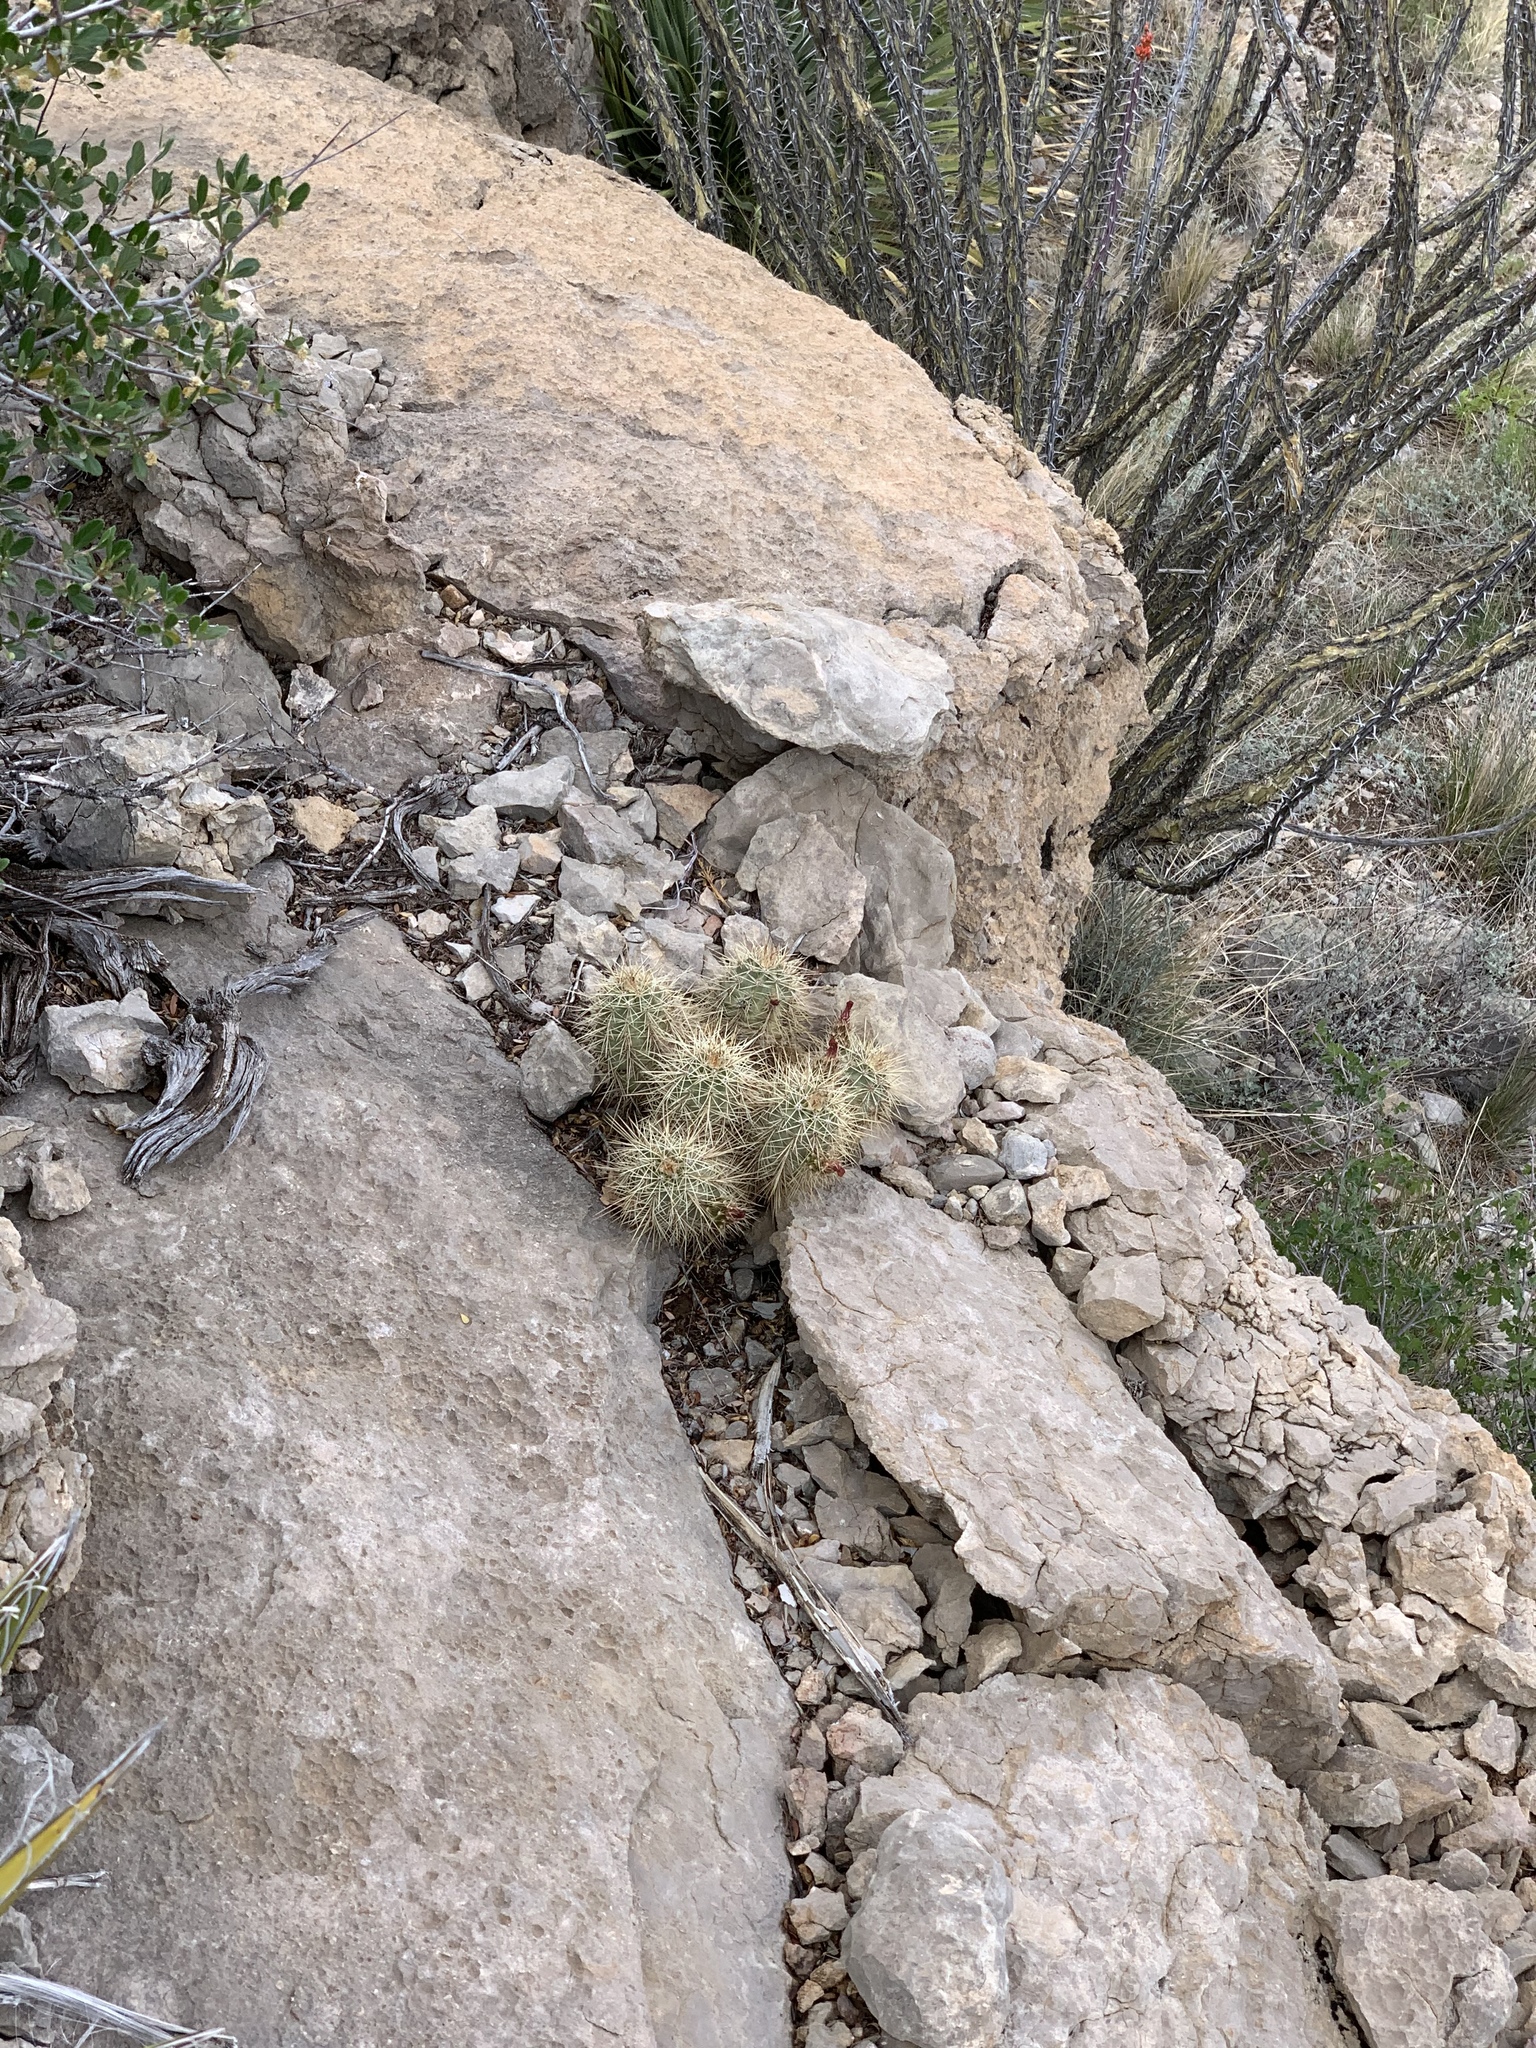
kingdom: Plantae
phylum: Tracheophyta
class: Magnoliopsida
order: Caryophyllales
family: Cactaceae
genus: Echinocereus
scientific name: Echinocereus coccineus
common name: Scarlet hedgehog cactus
